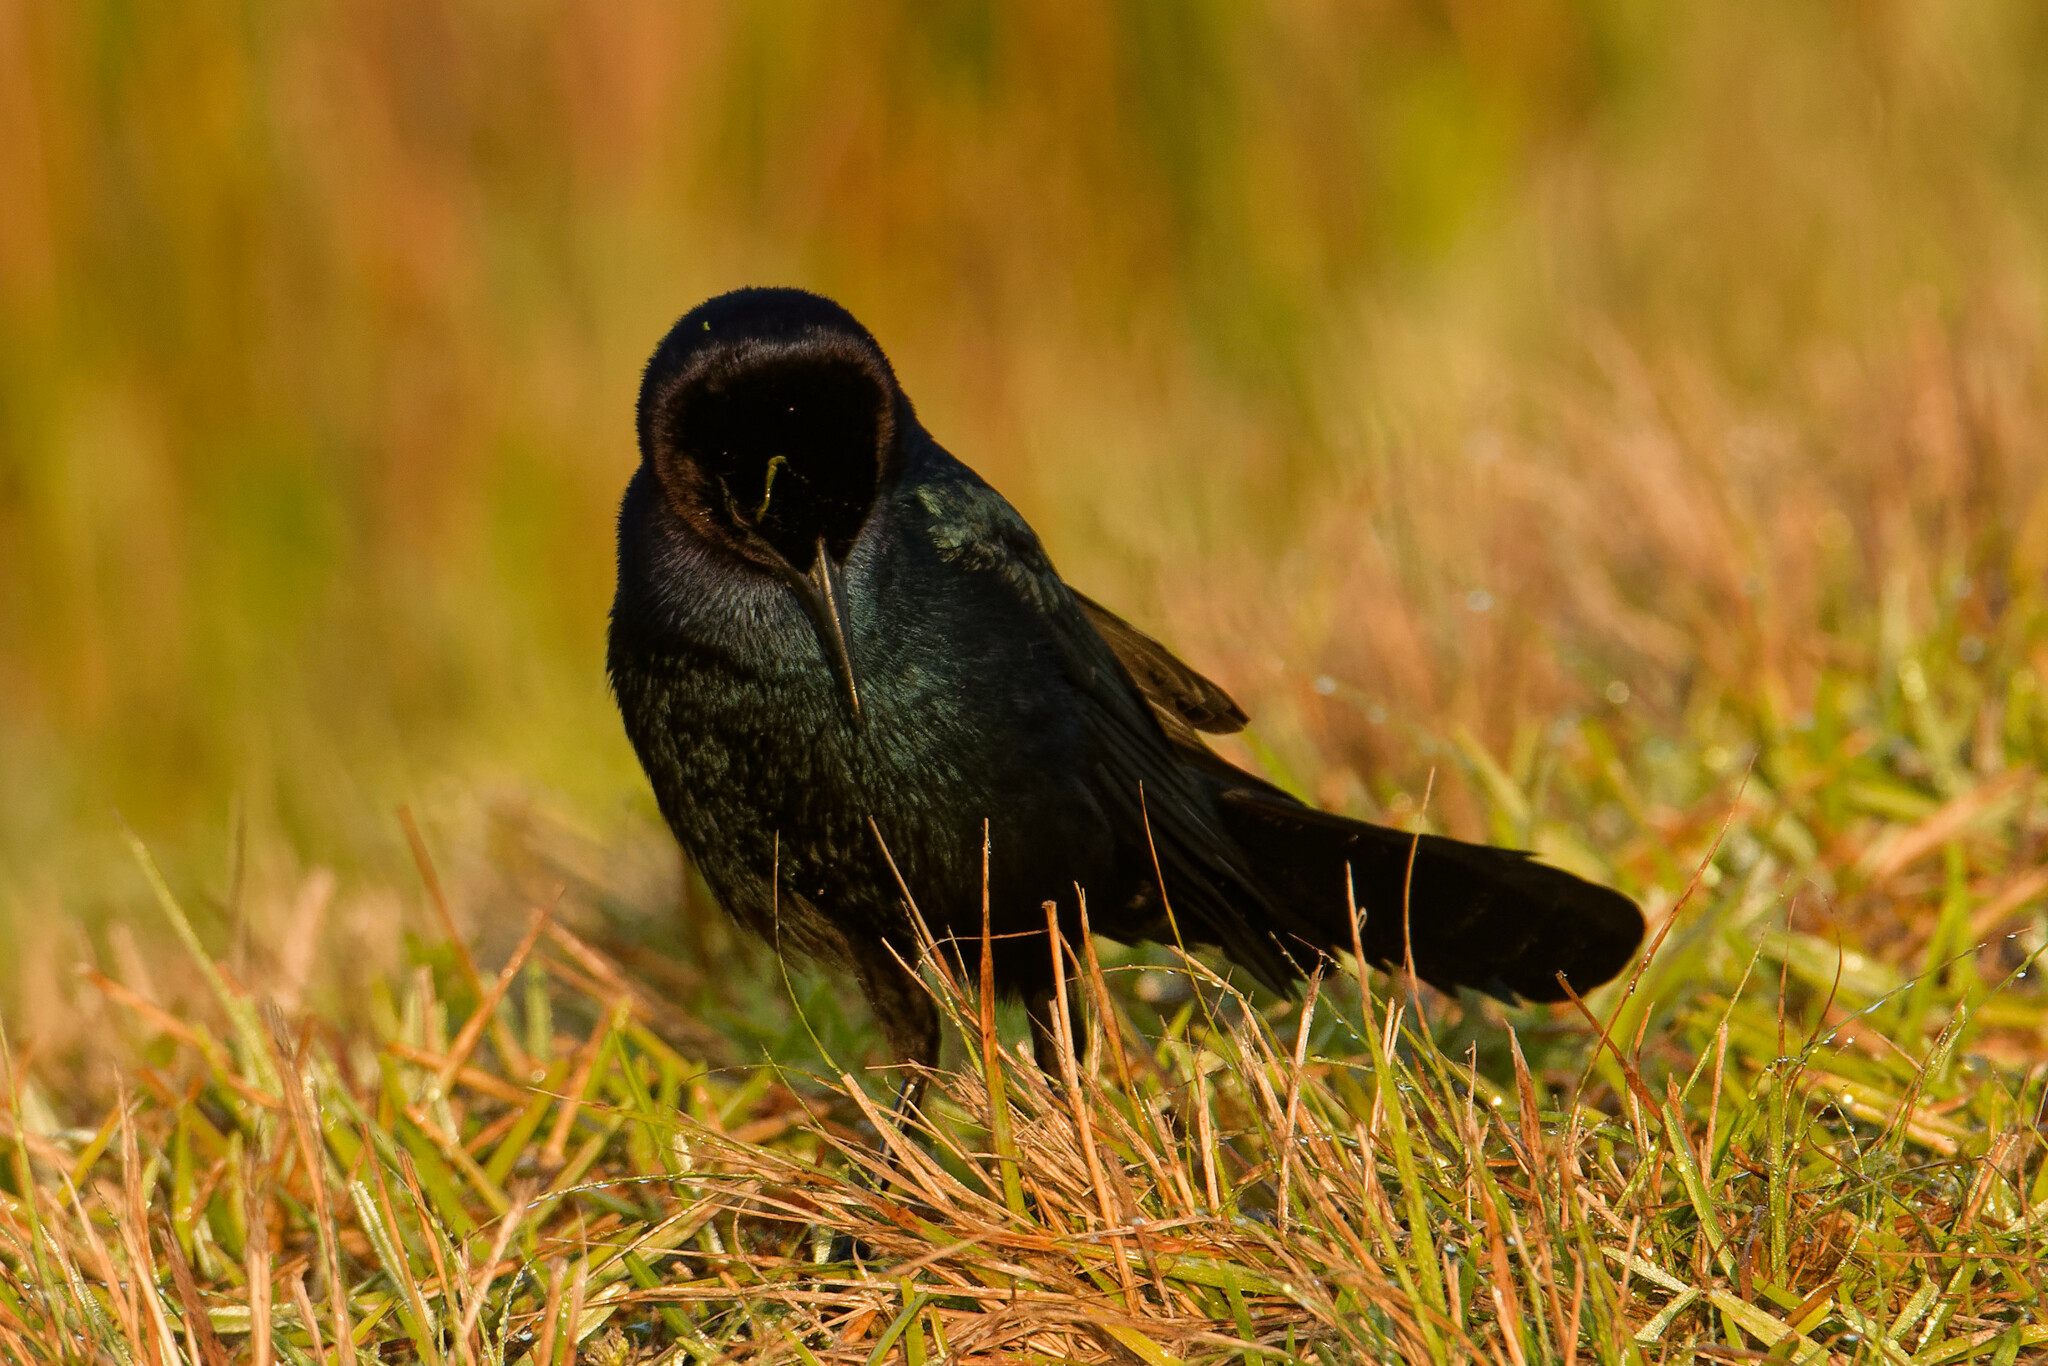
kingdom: Animalia
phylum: Chordata
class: Aves
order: Passeriformes
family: Icteridae
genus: Quiscalus
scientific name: Quiscalus major
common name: Boat-tailed grackle
